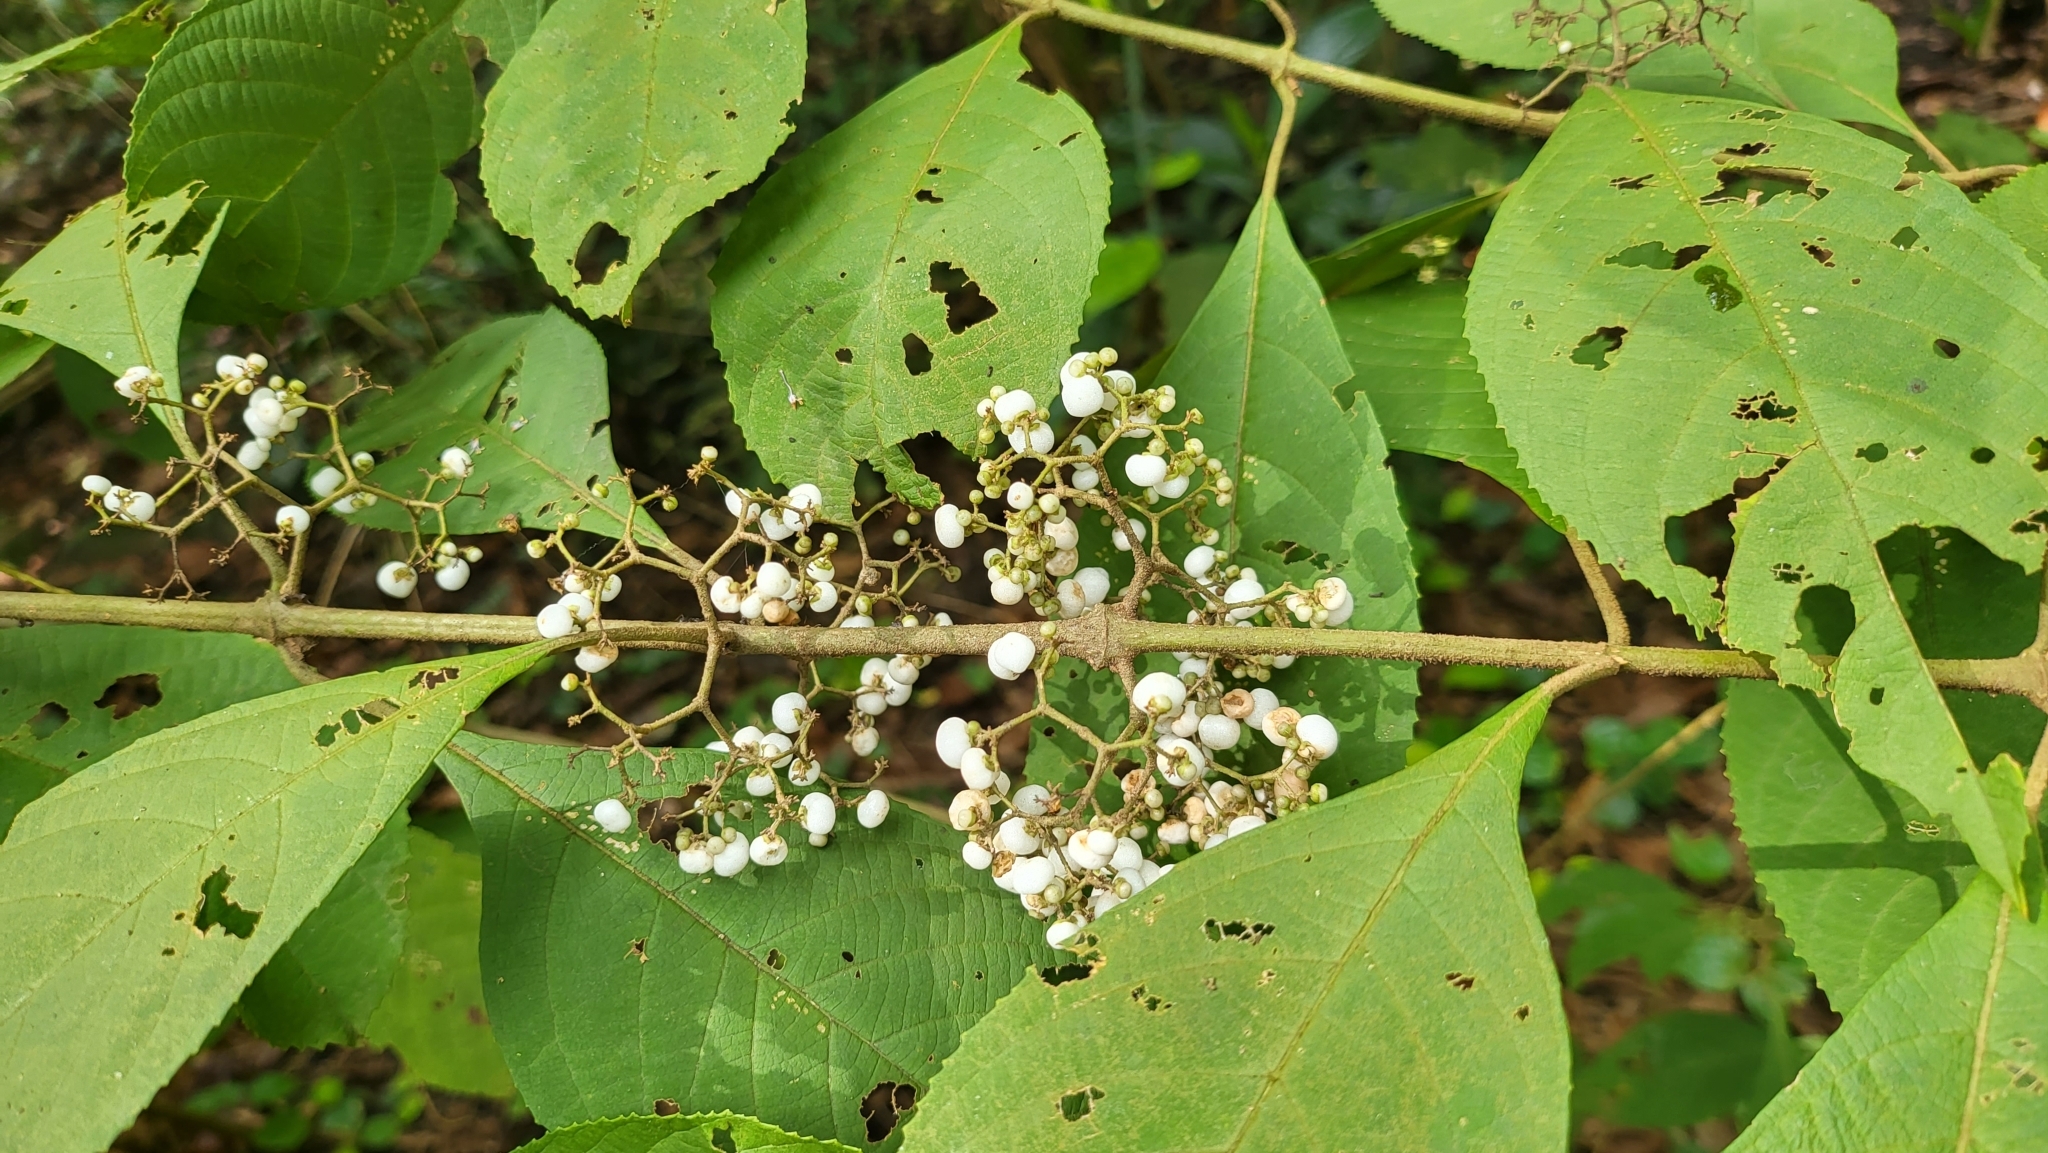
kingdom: Plantae
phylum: Tracheophyta
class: Magnoliopsida
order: Lamiales
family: Lamiaceae
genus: Callicarpa
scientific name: Callicarpa longifolia
